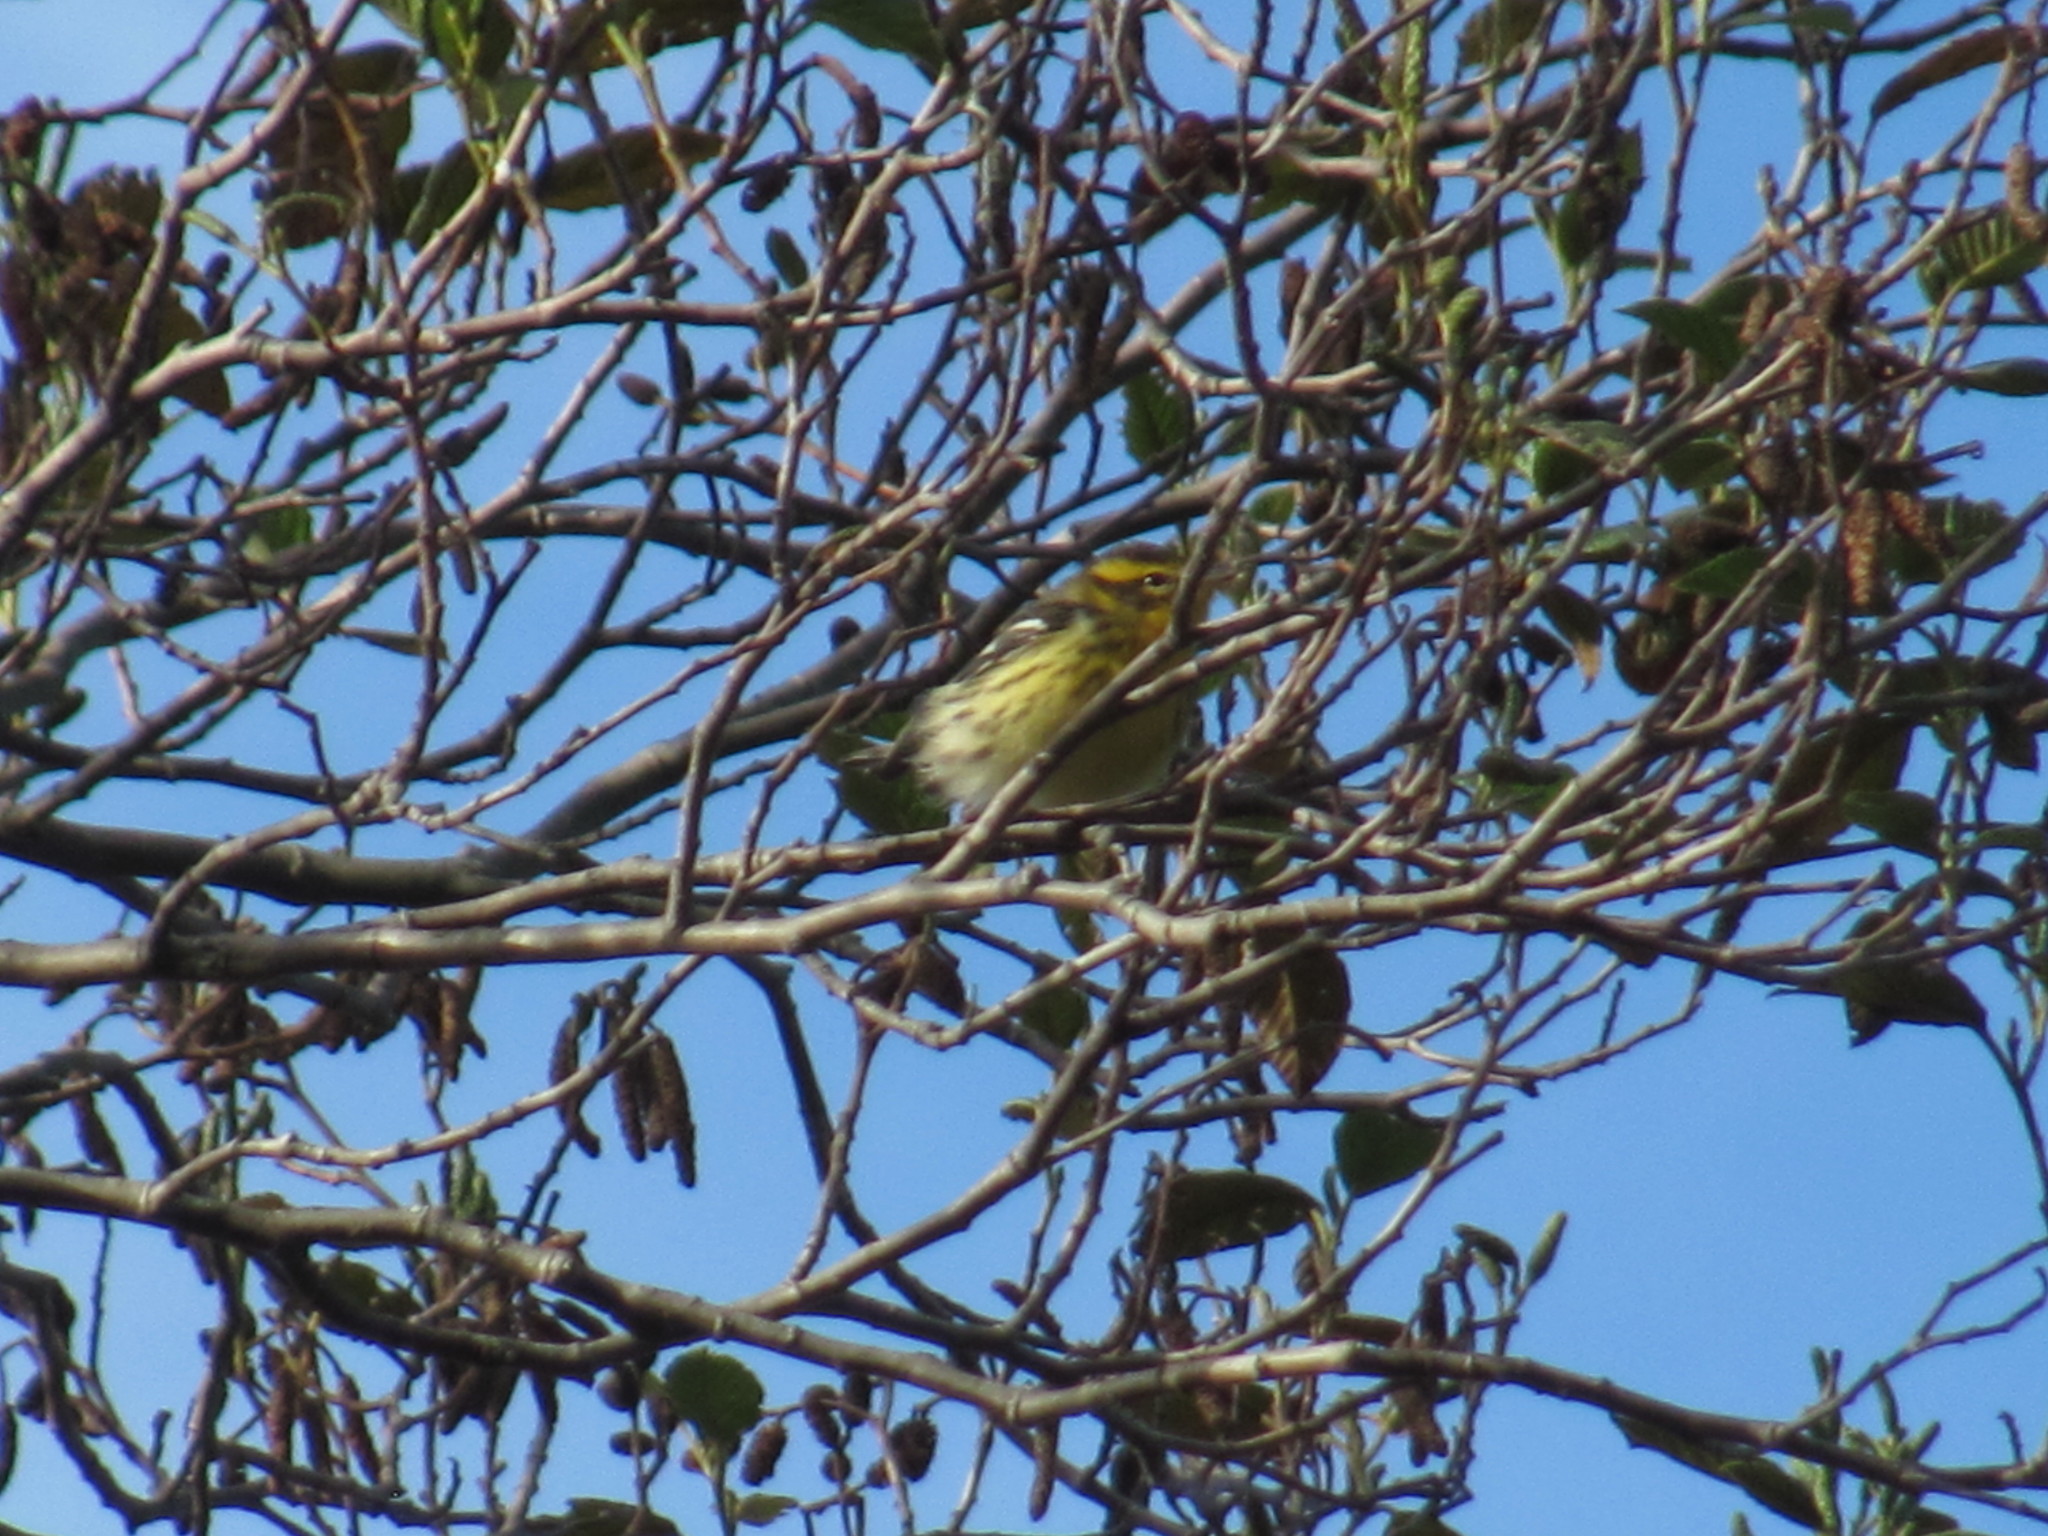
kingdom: Animalia
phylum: Chordata
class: Aves
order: Passeriformes
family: Parulidae
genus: Setophaga
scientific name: Setophaga fusca
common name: Blackburnian warbler
